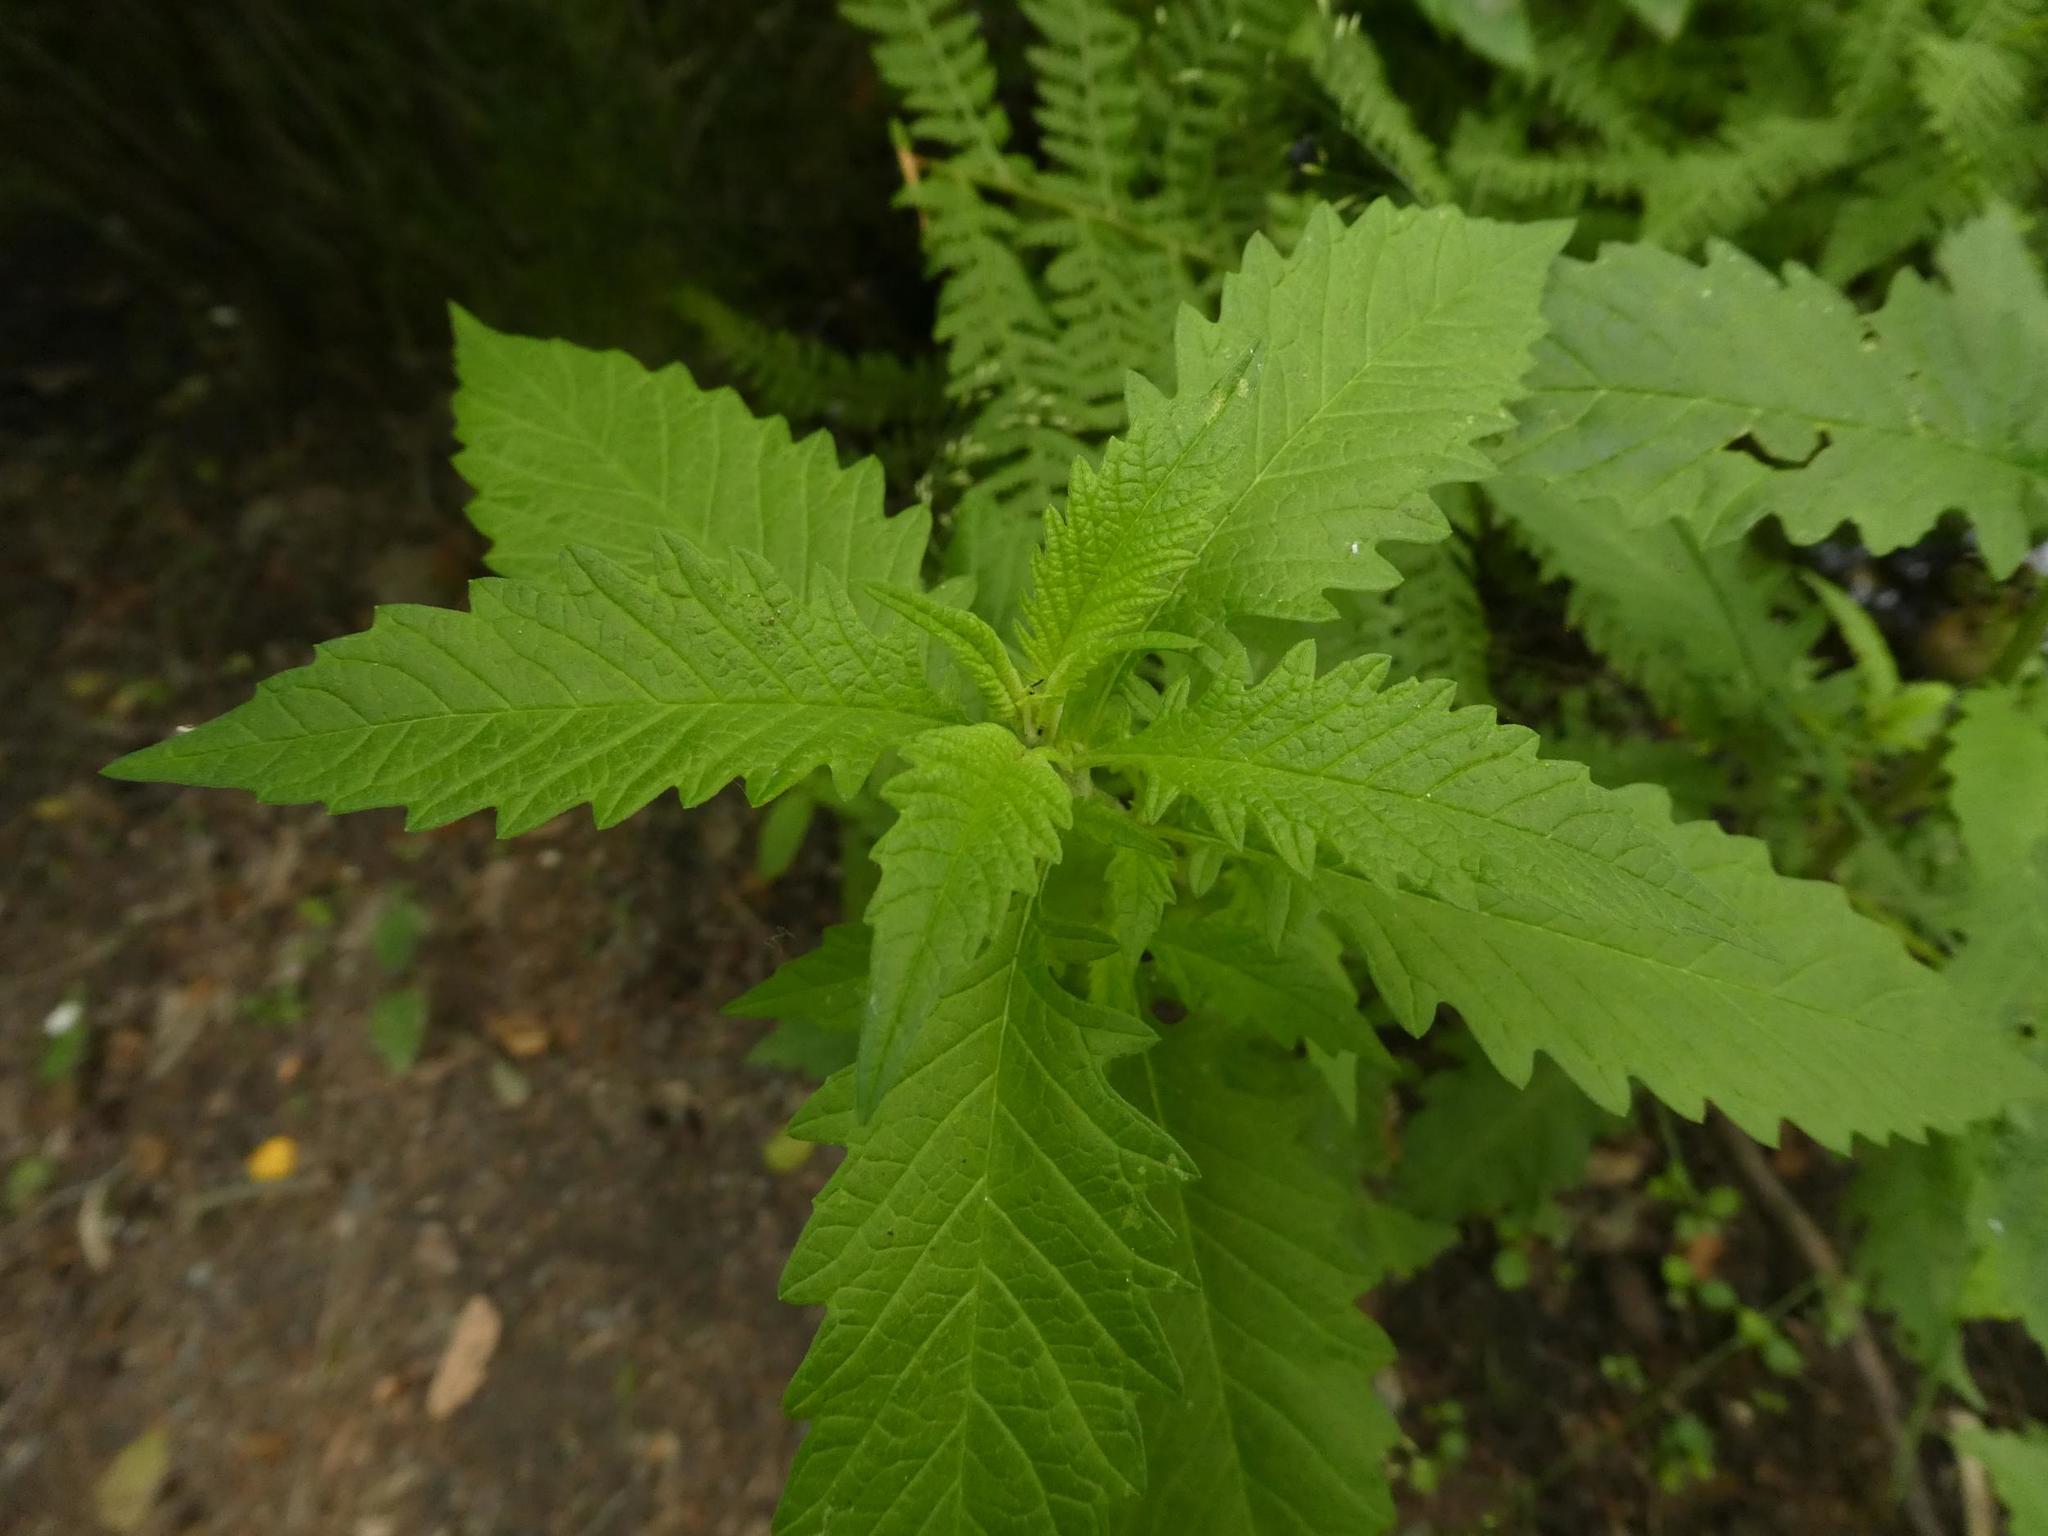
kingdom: Plantae
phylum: Tracheophyta
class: Magnoliopsida
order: Lamiales
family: Lamiaceae
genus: Lycopus
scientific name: Lycopus europaeus
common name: European bugleweed
